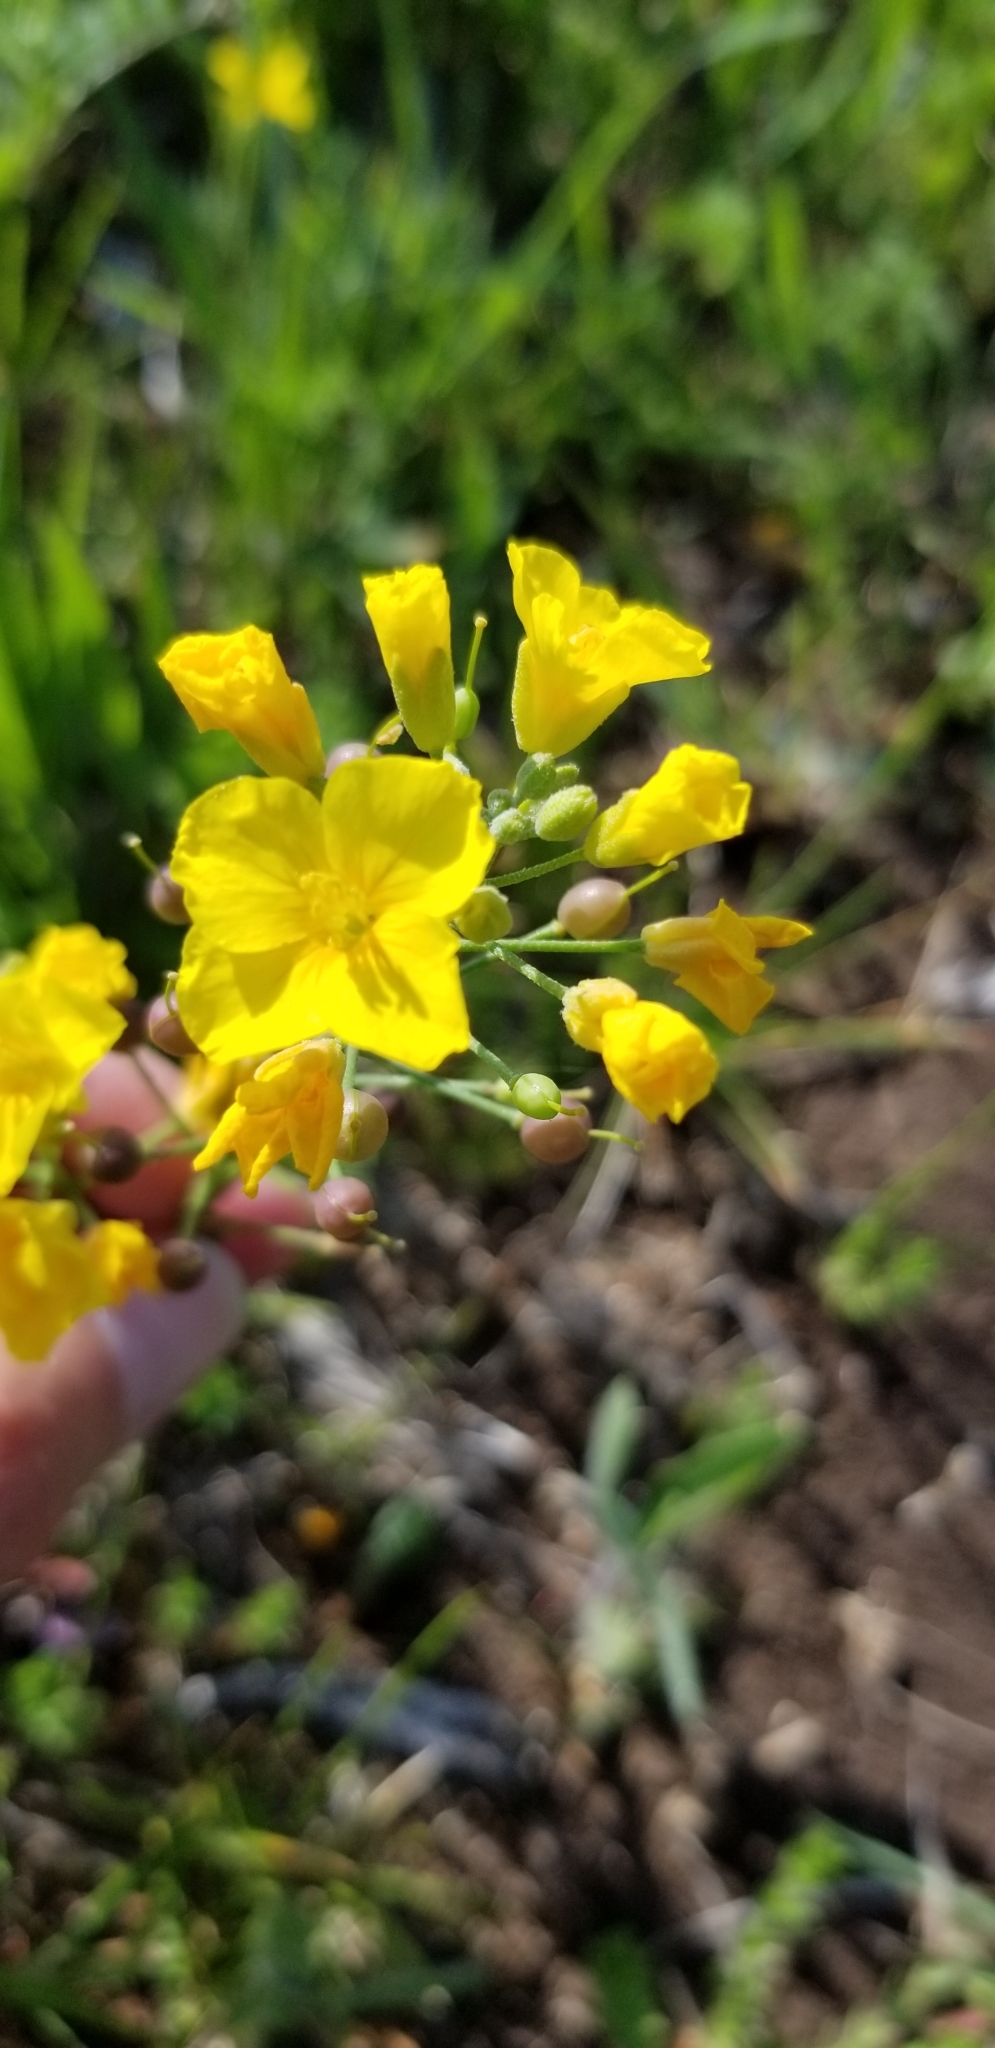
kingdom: Plantae
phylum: Tracheophyta
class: Magnoliopsida
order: Brassicales
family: Brassicaceae
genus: Physaria
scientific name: Physaria gracilis
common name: Spreading bladderpod
